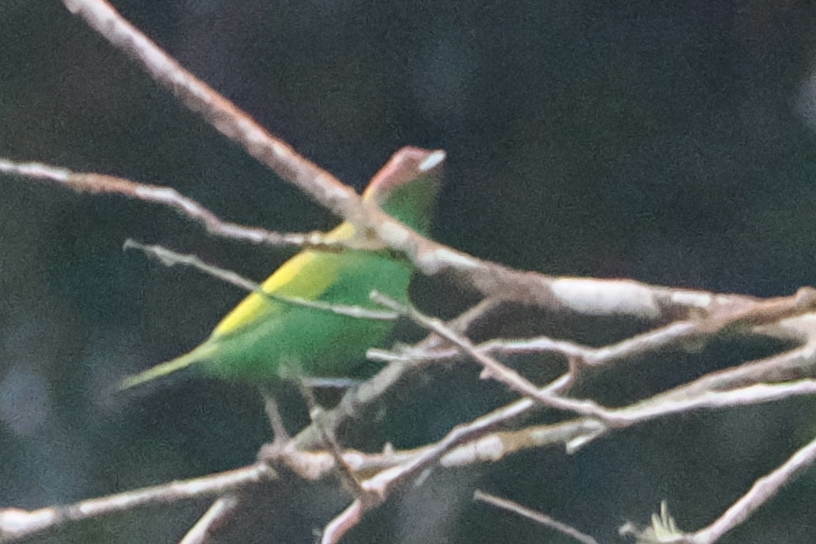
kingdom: Animalia
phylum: Chordata
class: Aves
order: Passeriformes
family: Thraupidae
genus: Tangara
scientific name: Tangara gyrola
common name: Bay-headed tanager
